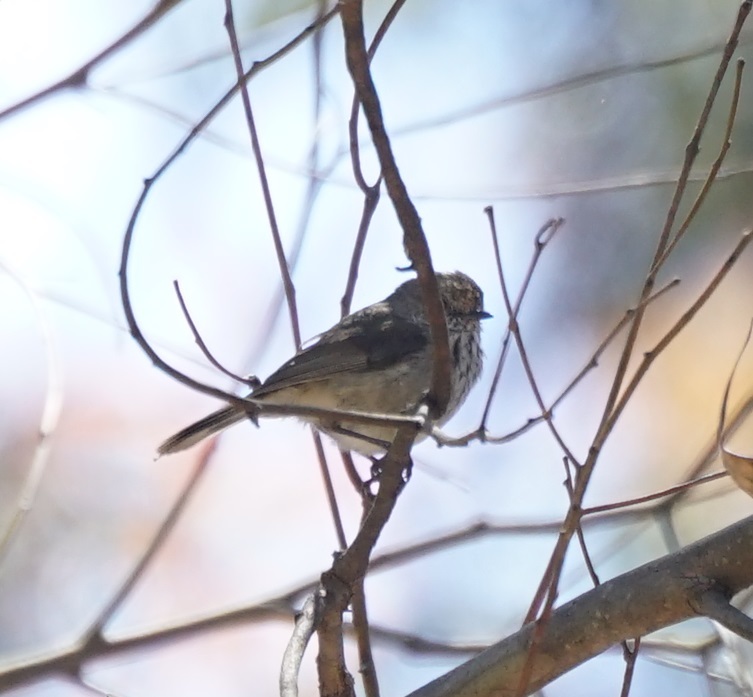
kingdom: Animalia
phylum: Chordata
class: Aves
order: Passeriformes
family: Acanthizidae
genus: Acanthiza
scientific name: Acanthiza pusilla
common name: Brown thornbill
